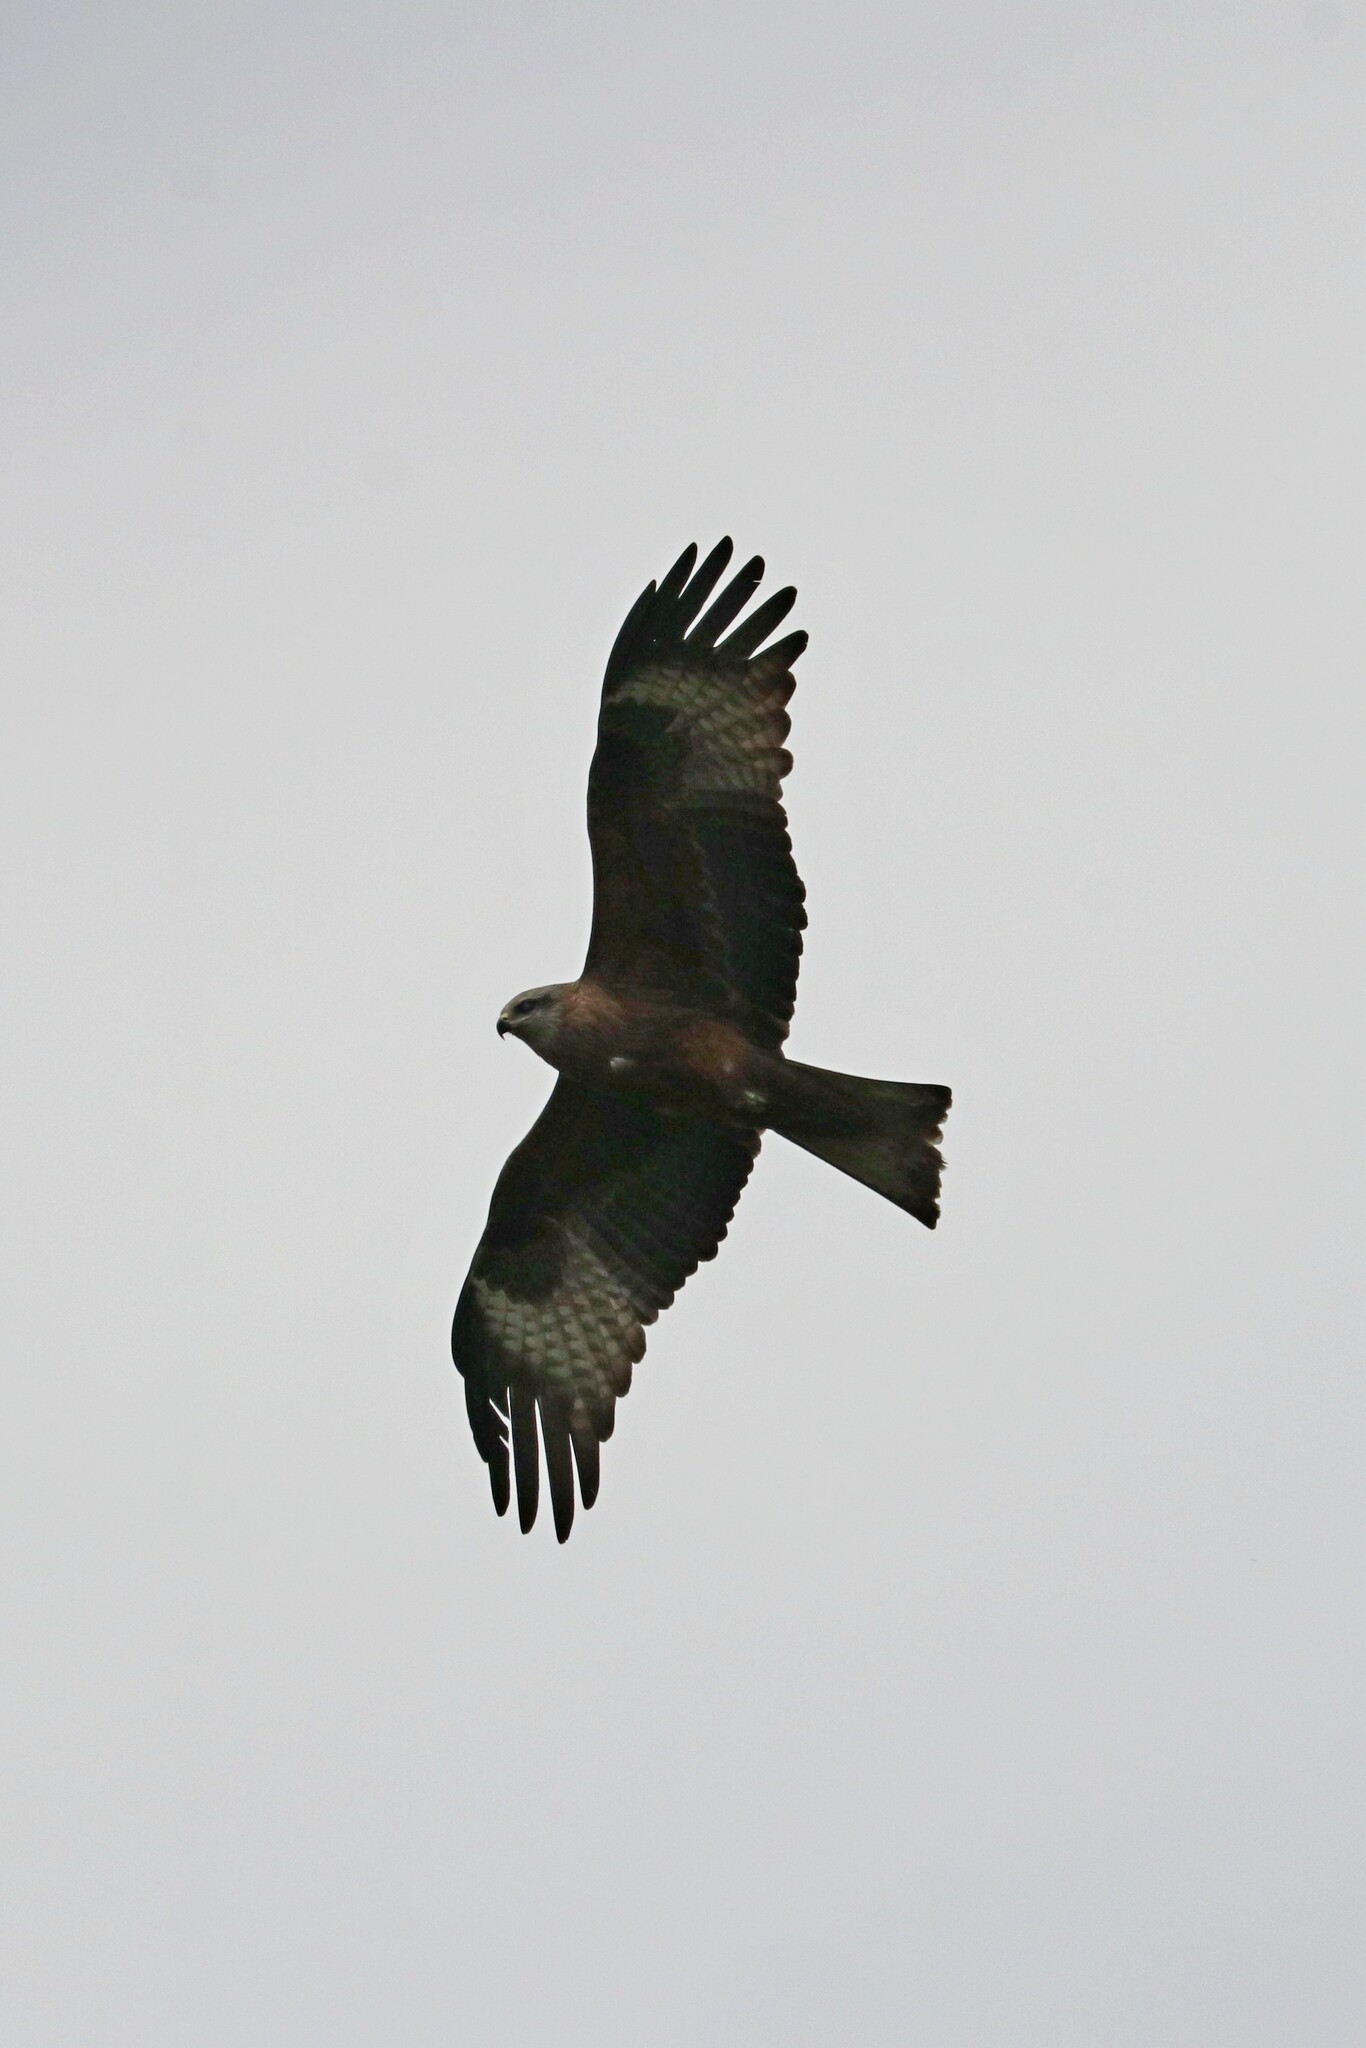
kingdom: Animalia
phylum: Chordata
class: Aves
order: Accipitriformes
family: Accipitridae
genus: Milvus
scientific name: Milvus migrans
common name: Black kite
